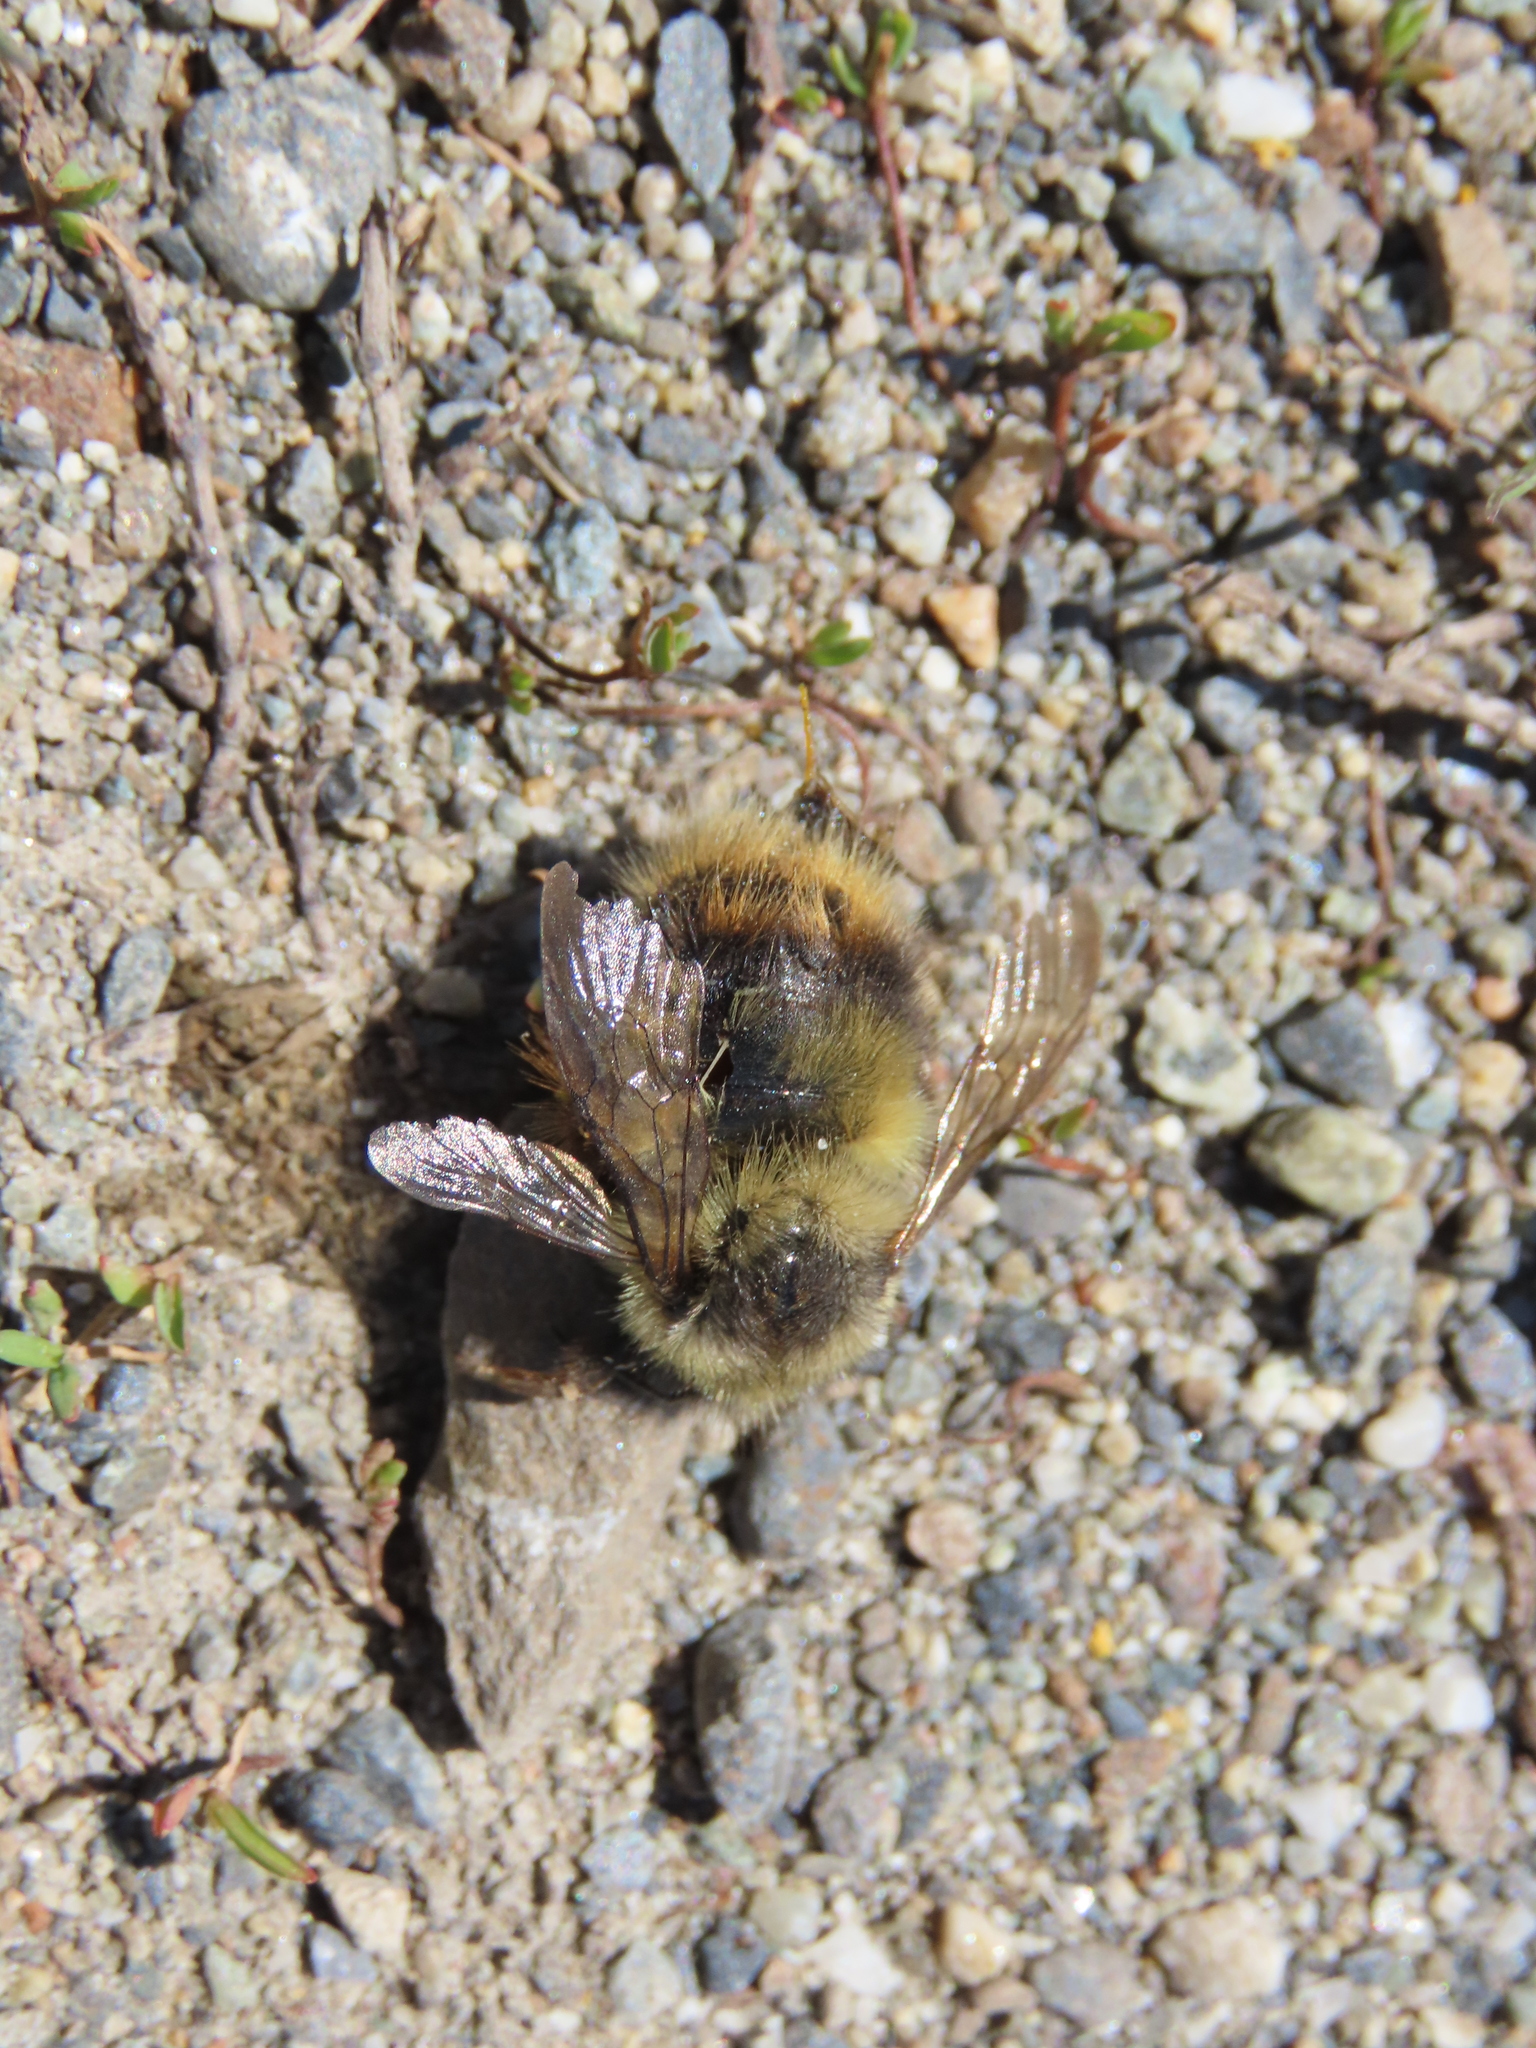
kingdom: Animalia
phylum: Arthropoda
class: Insecta
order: Hymenoptera
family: Apidae
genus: Bombus
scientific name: Bombus mixtus
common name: Fuzzy-horned bumble bee
